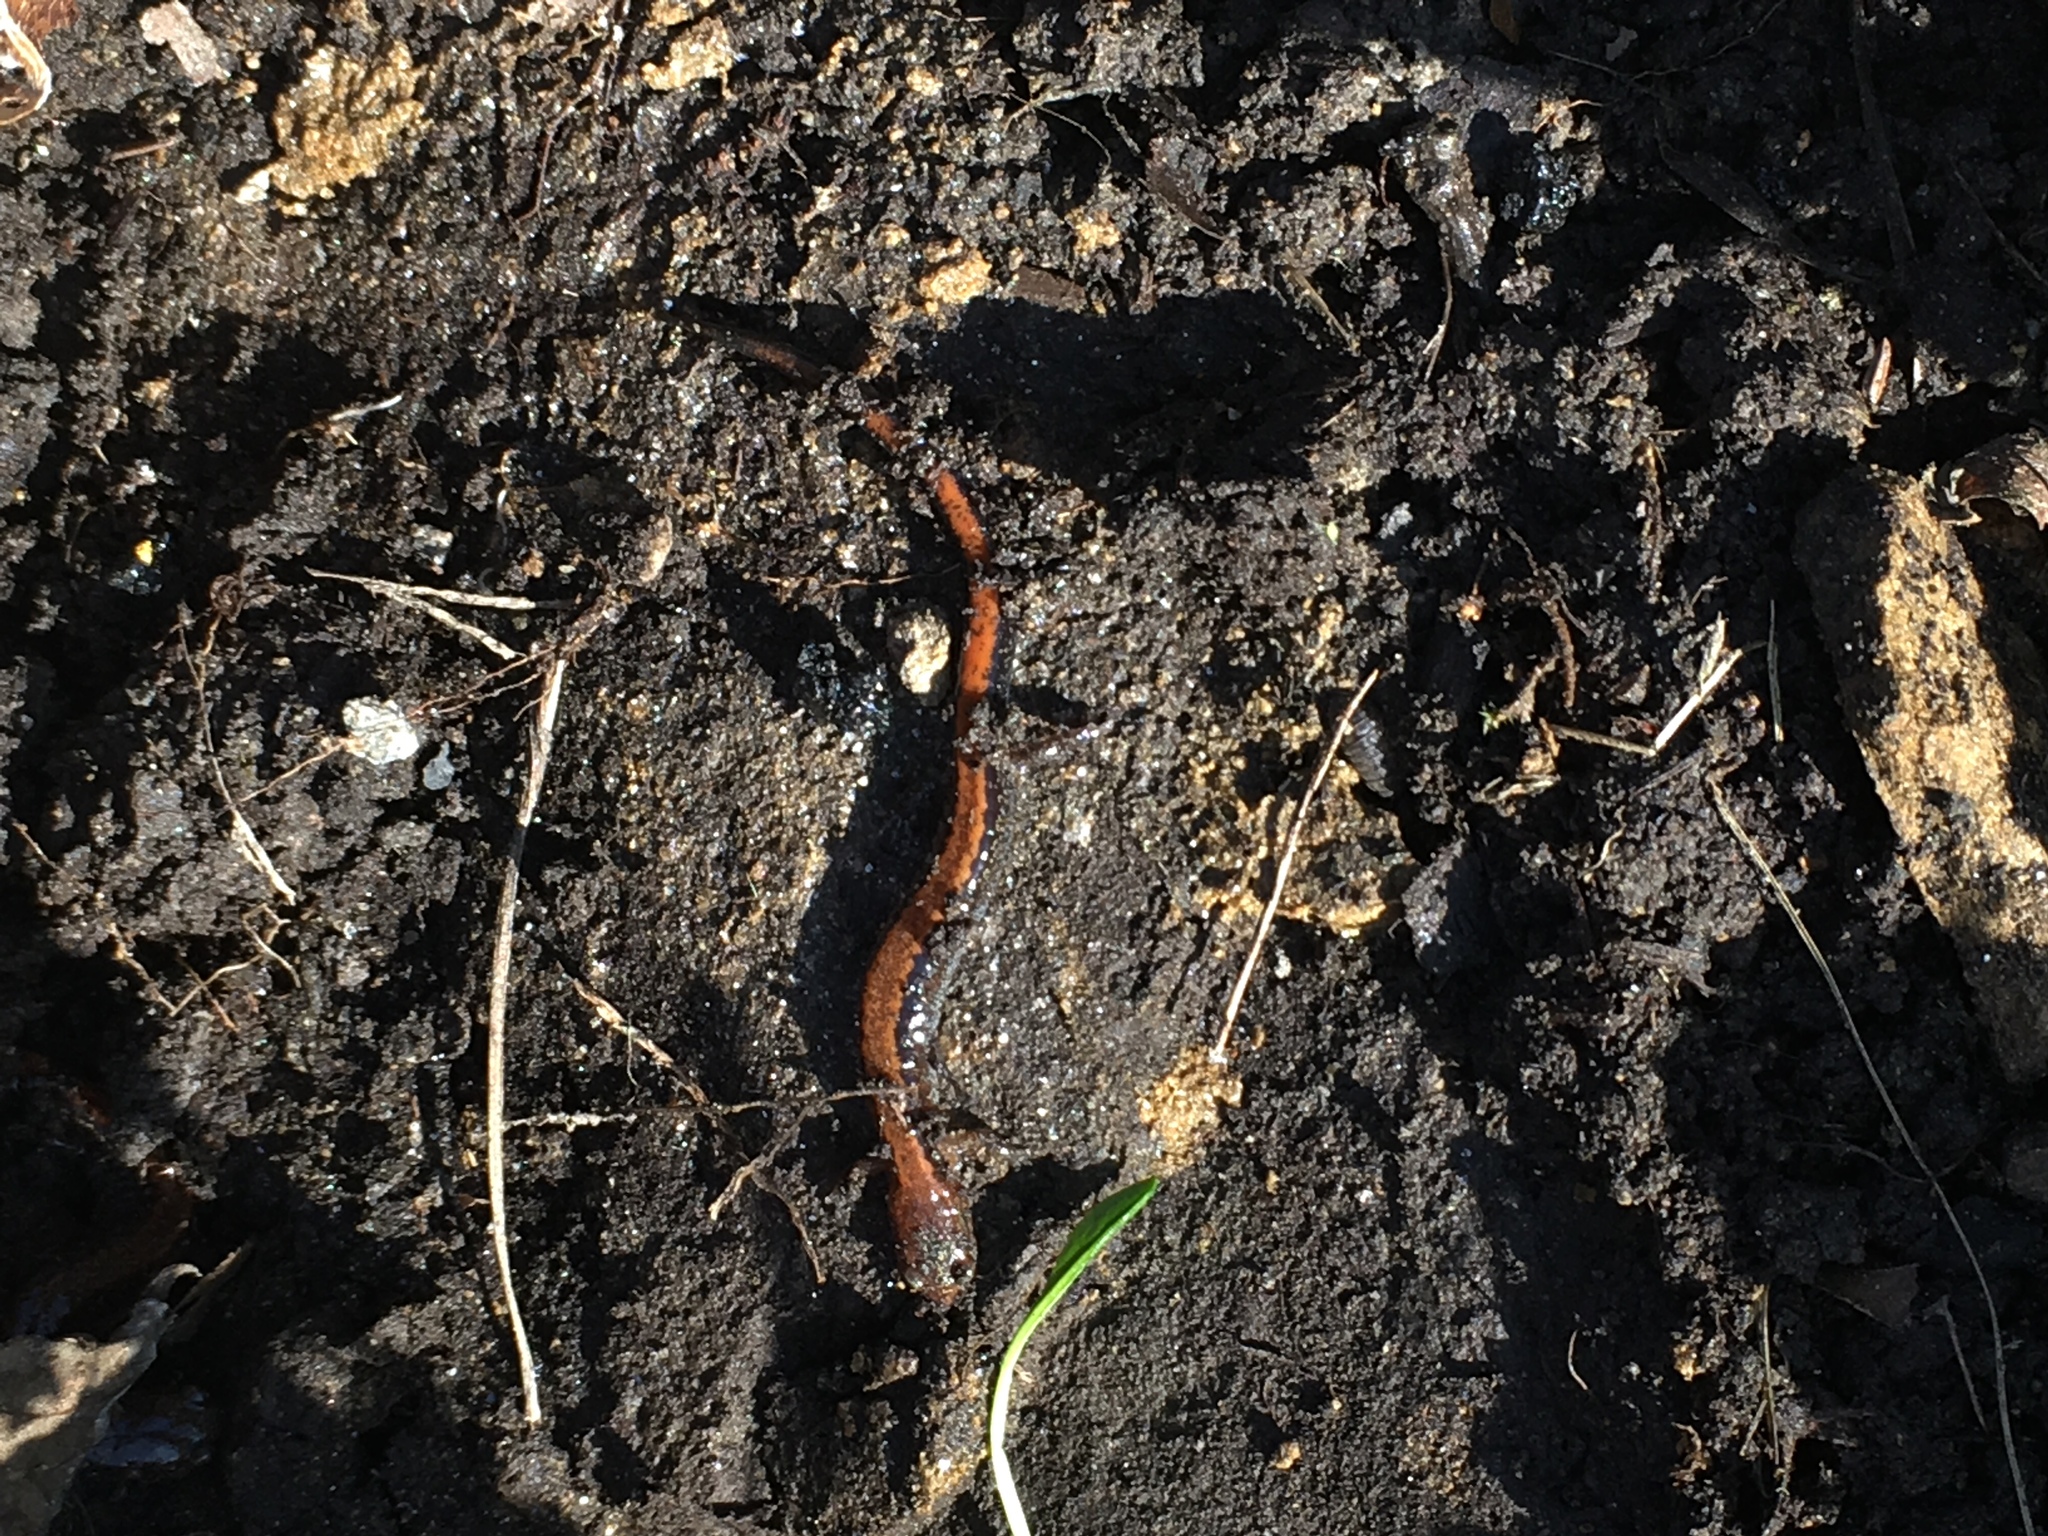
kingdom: Animalia
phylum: Chordata
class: Amphibia
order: Caudata
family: Plethodontidae
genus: Plethodon
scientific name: Plethodon cinereus
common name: Redback salamander
